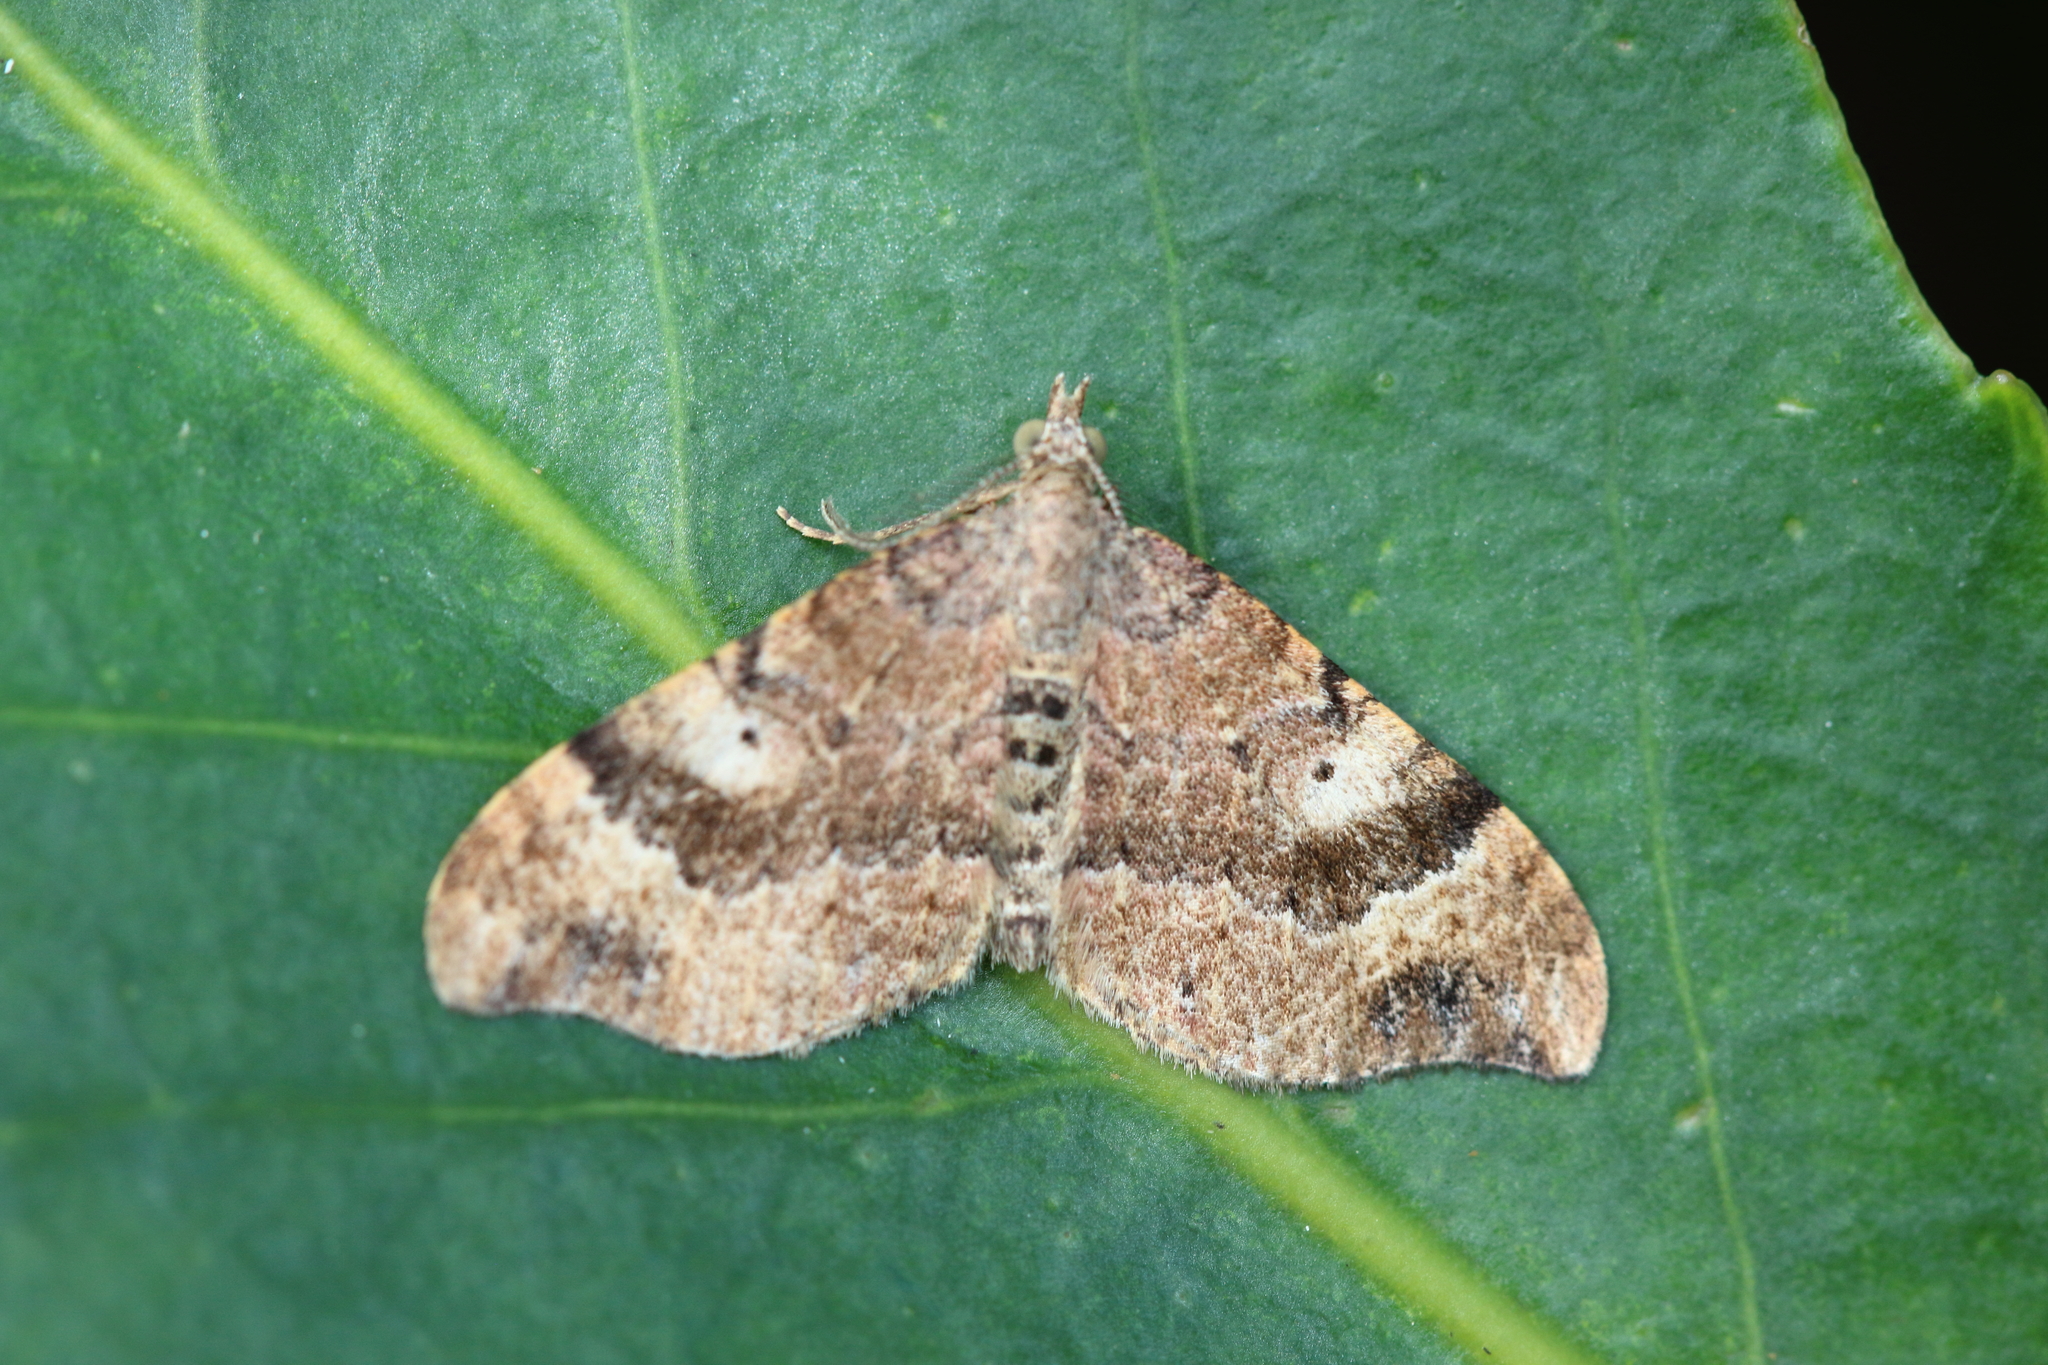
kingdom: Animalia
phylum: Arthropoda
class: Insecta
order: Lepidoptera
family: Geometridae
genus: Homodotis
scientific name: Homodotis megaspilata
